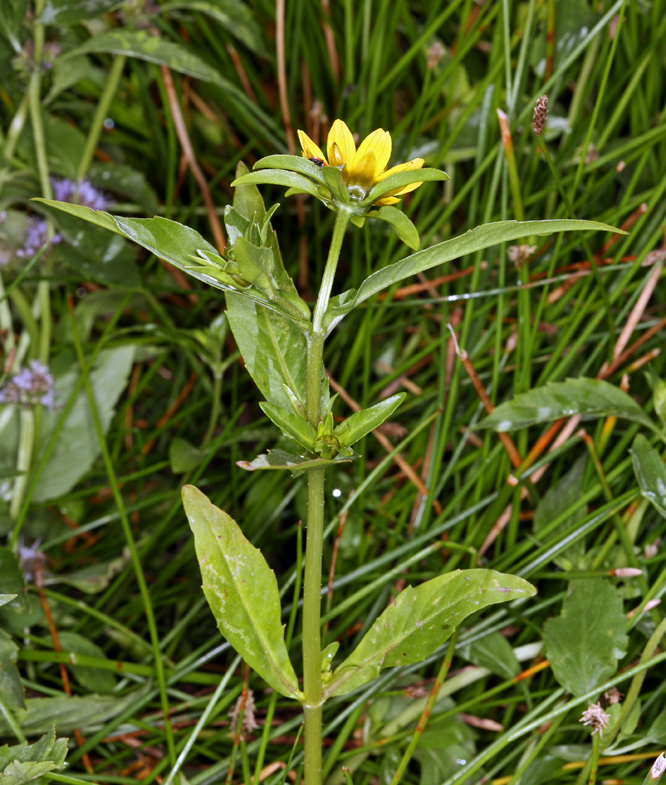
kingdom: Plantae
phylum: Tracheophyta
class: Magnoliopsida
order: Asterales
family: Asteraceae
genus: Bidens
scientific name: Bidens cernua
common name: Nodding bur-marigold
